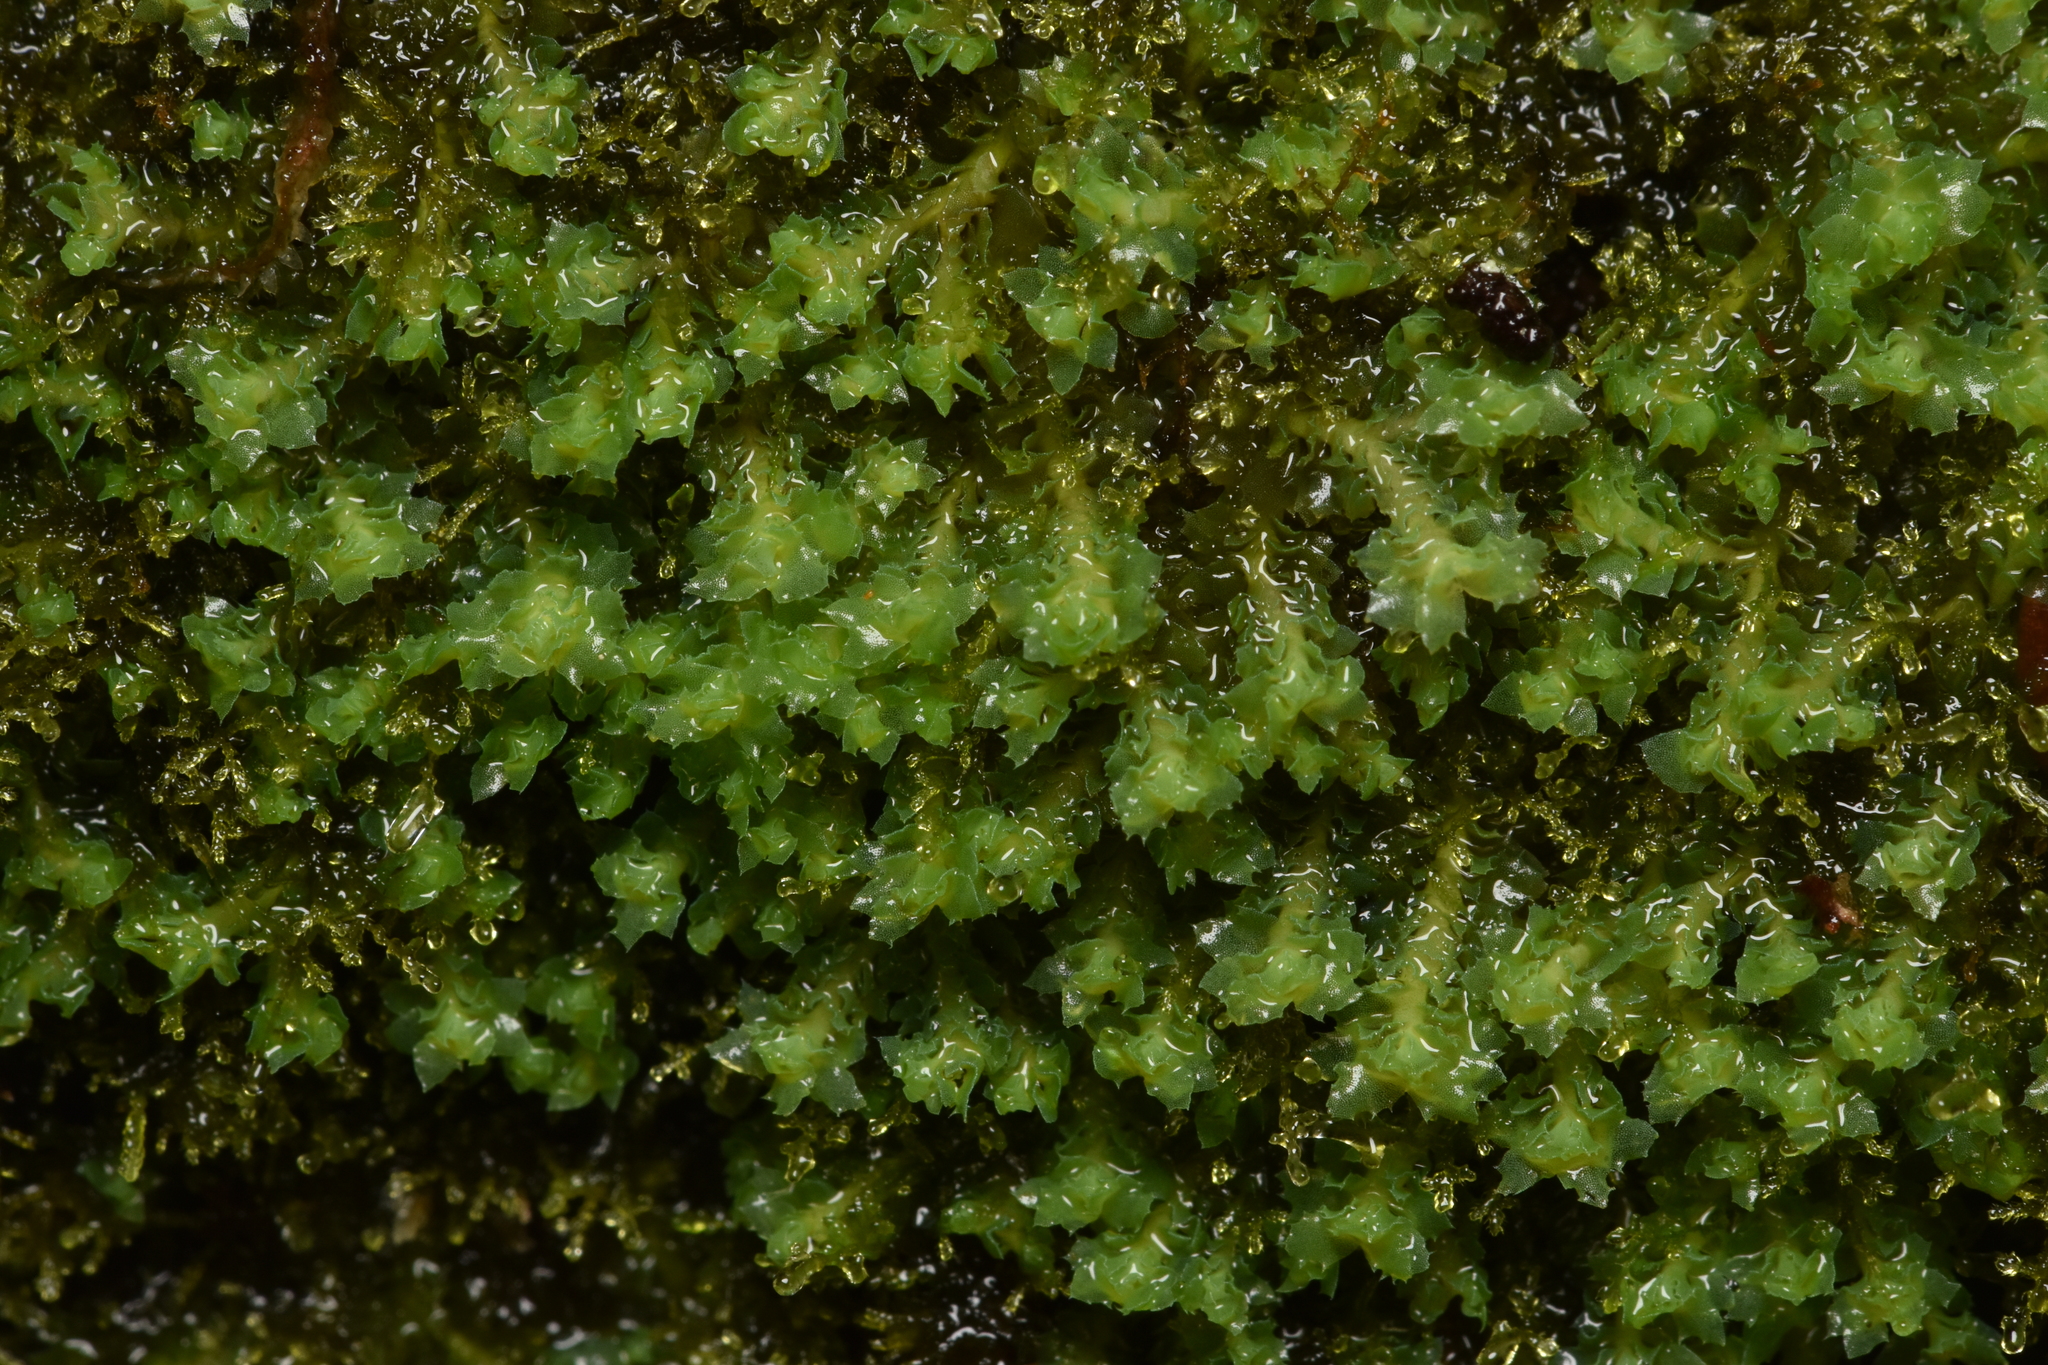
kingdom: Plantae
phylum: Marchantiophyta
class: Jungermanniopsida
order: Jungermanniales
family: Scapaniaceae
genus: Schistochilopsis
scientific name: Schistochilopsis incisa
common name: Jagged notchwort
